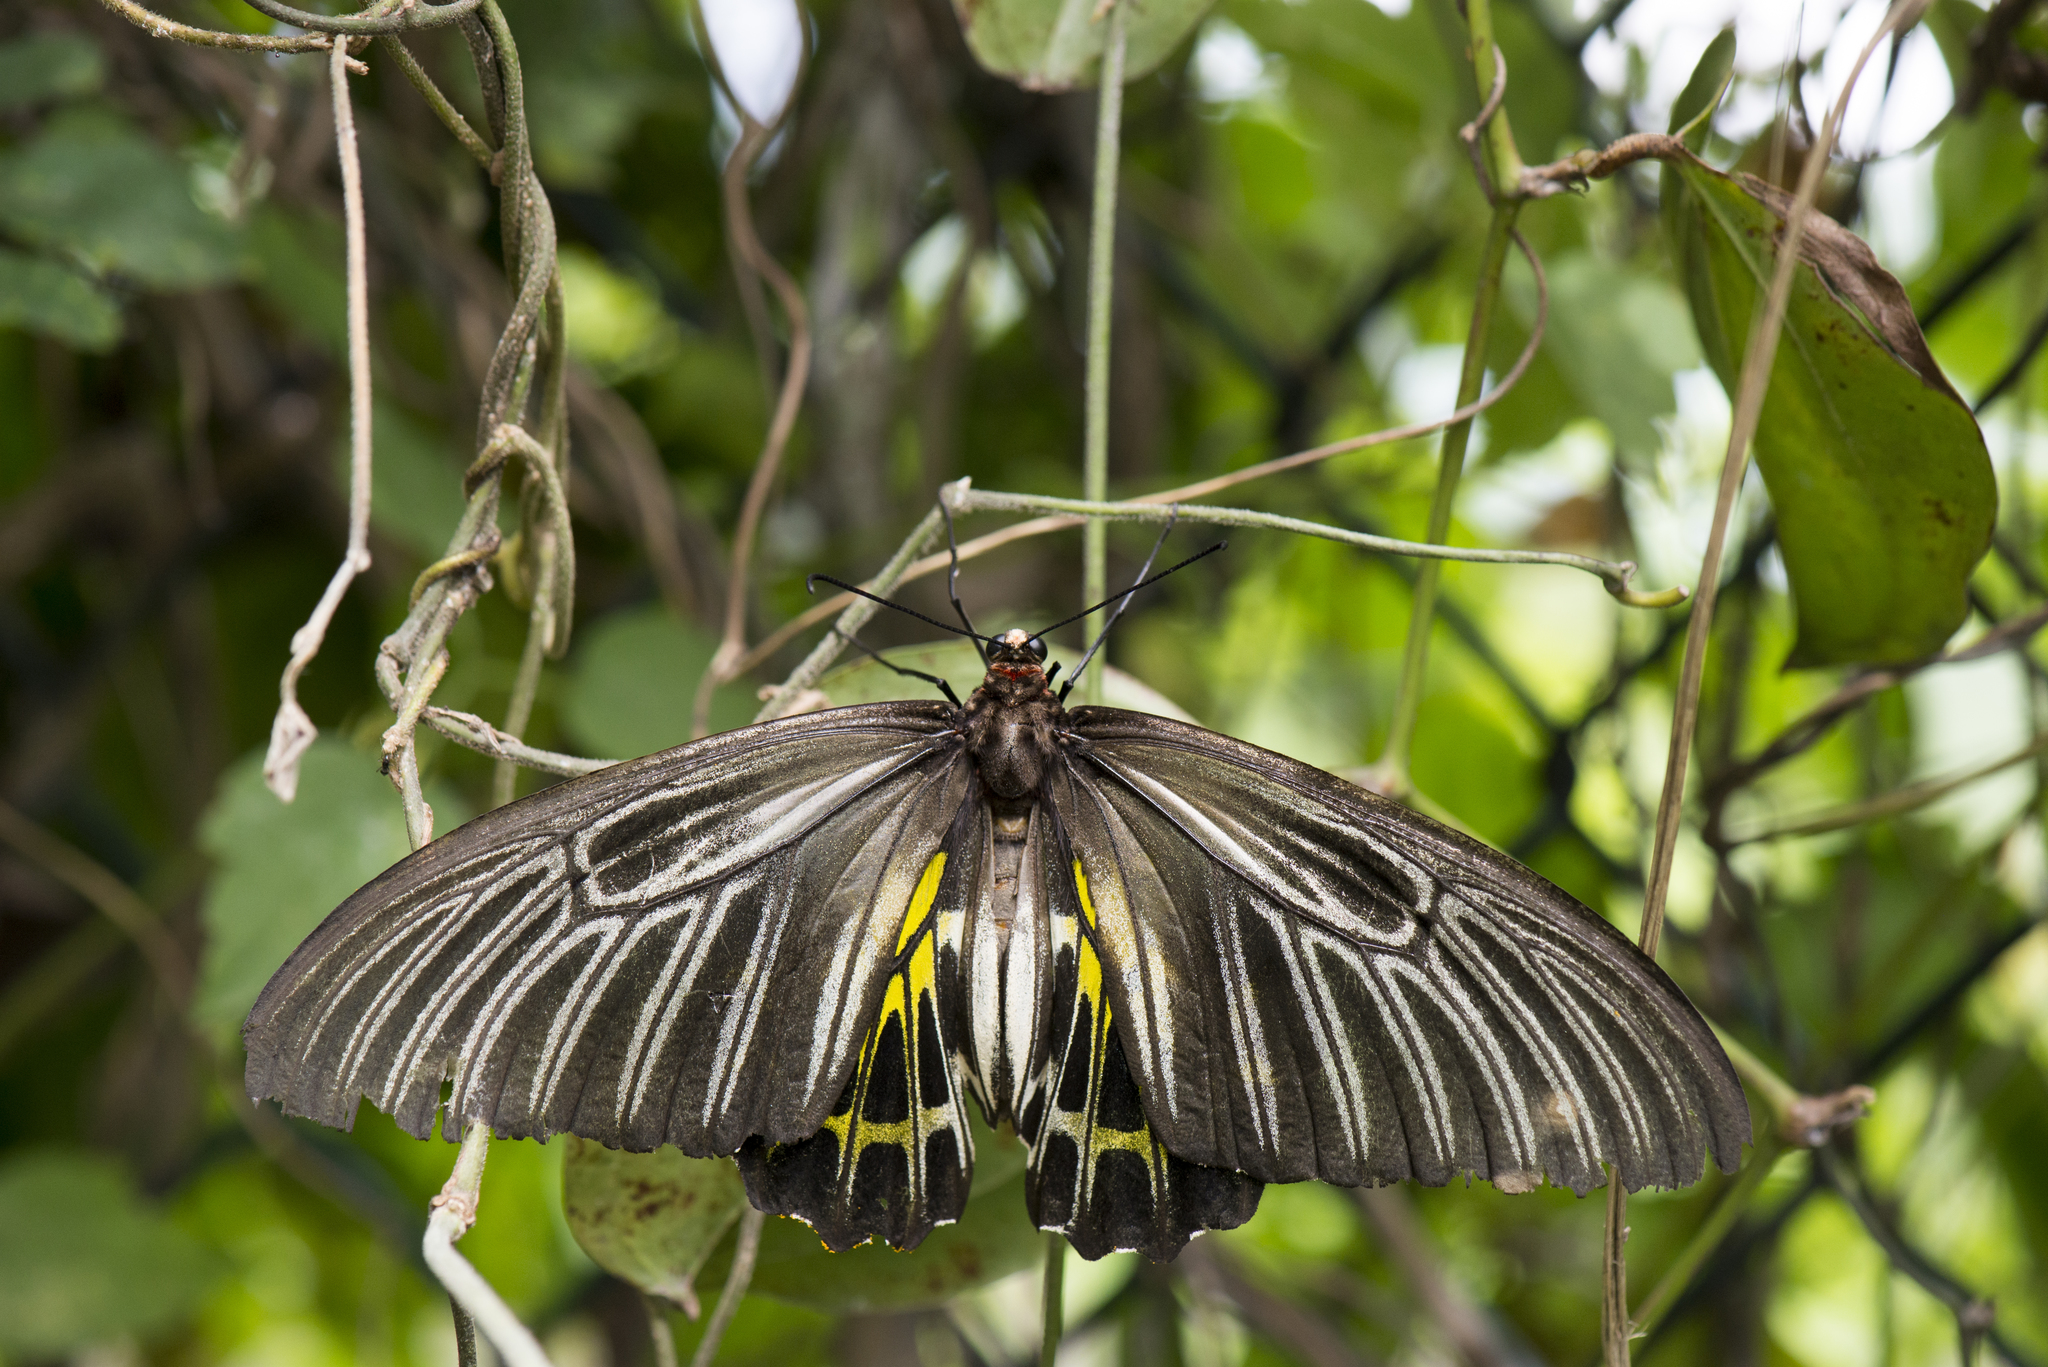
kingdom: Animalia
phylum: Arthropoda
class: Insecta
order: Lepidoptera
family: Papilionidae
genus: Troides
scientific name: Troides aeacus
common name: Golden birdwing
